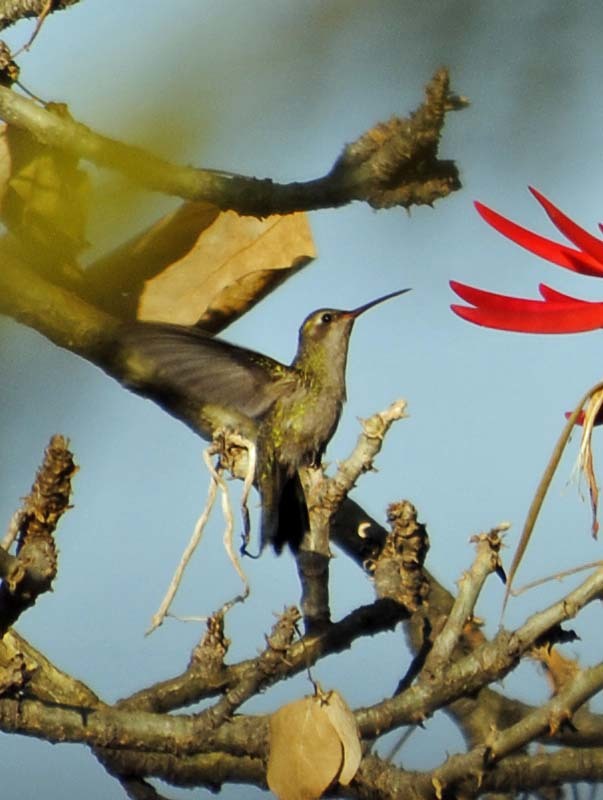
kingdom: Animalia
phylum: Chordata
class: Aves
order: Apodiformes
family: Trochilidae
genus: Cynanthus
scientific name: Cynanthus latirostris
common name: Broad-billed hummingbird
